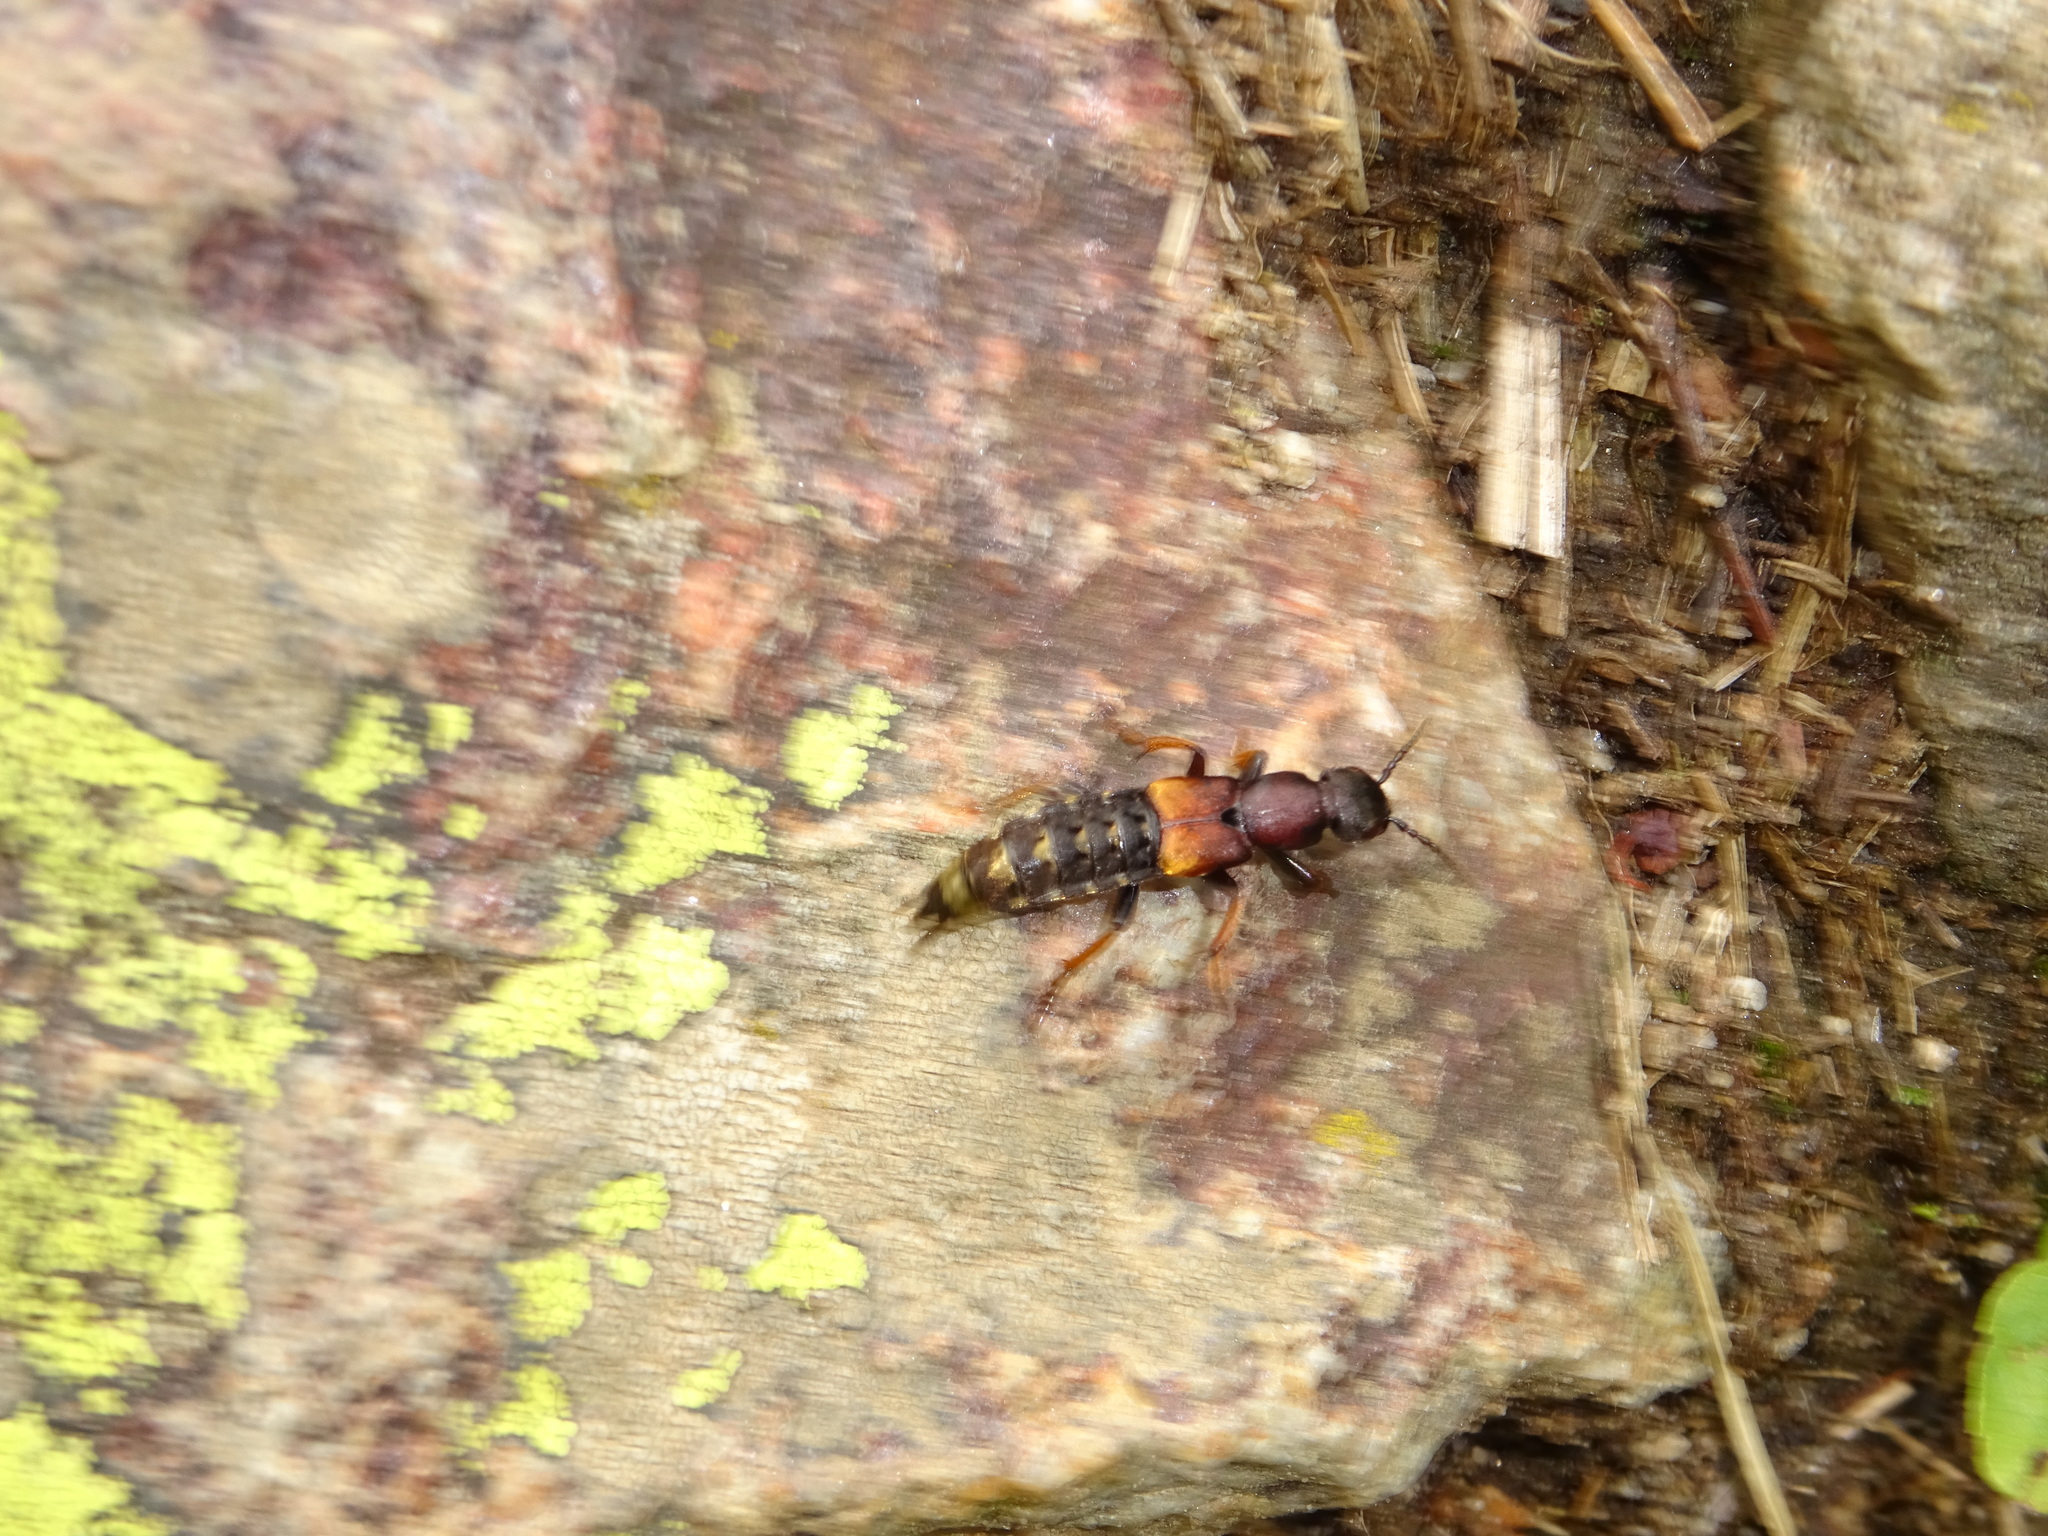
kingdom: Animalia
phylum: Arthropoda
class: Insecta
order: Coleoptera
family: Staphylinidae
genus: Dinothenarus
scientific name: Dinothenarus fossor
